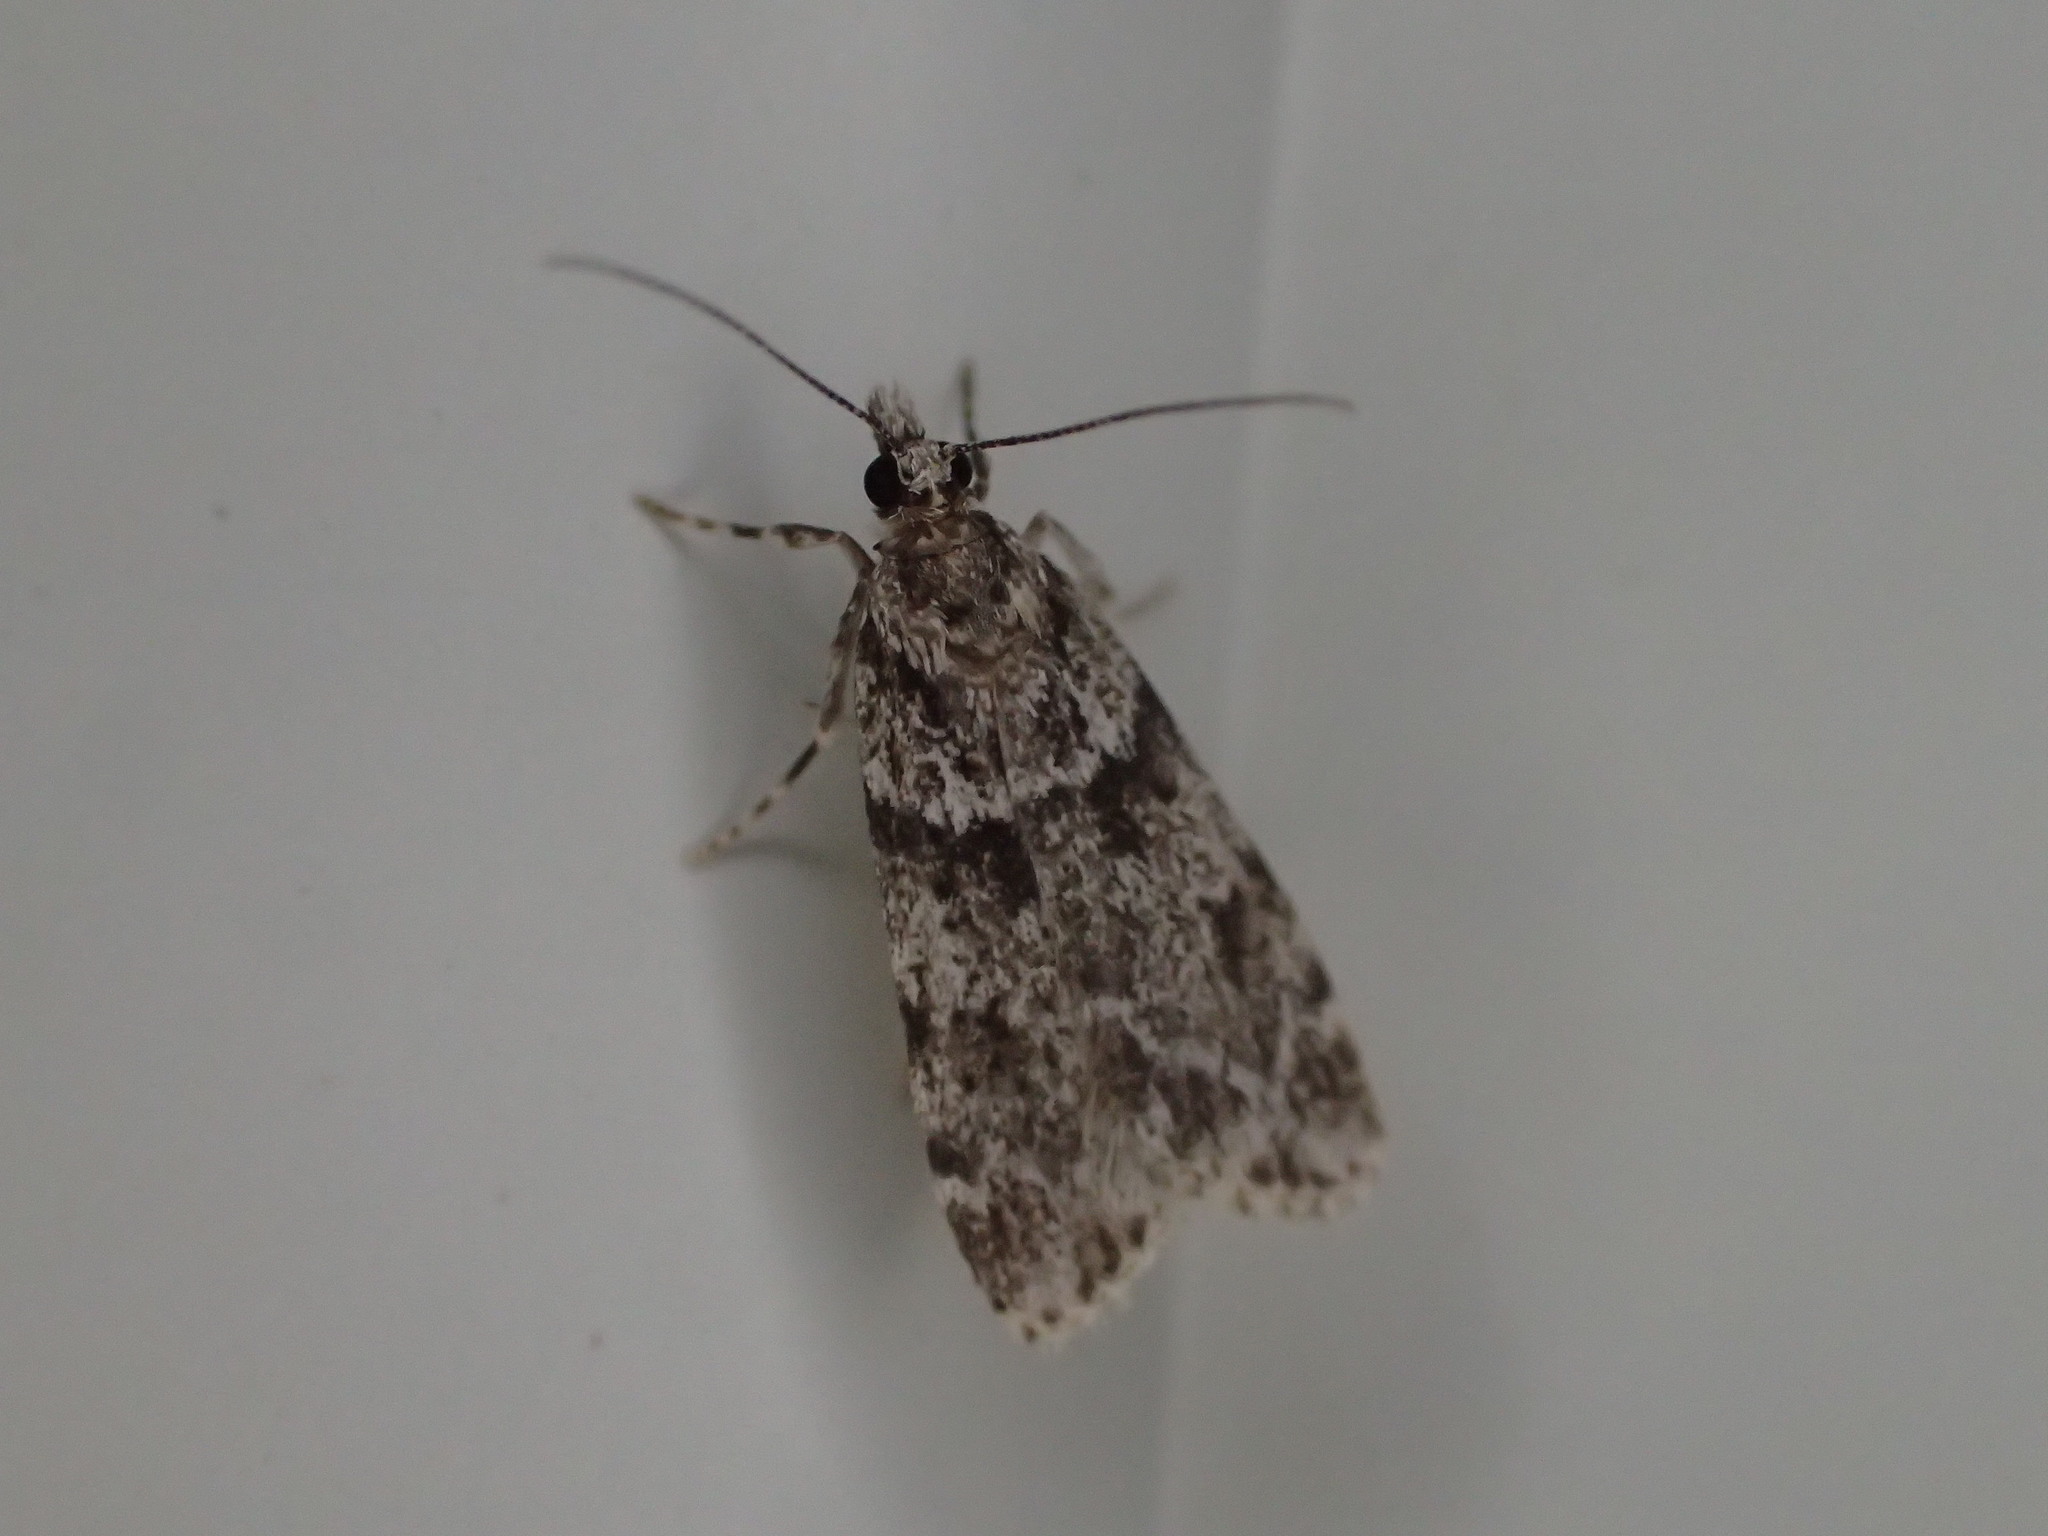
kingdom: Animalia
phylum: Arthropoda
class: Insecta
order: Lepidoptera
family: Crambidae
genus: Scoparia
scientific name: Scoparia biplagialis
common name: Double-striped scoparia moth
